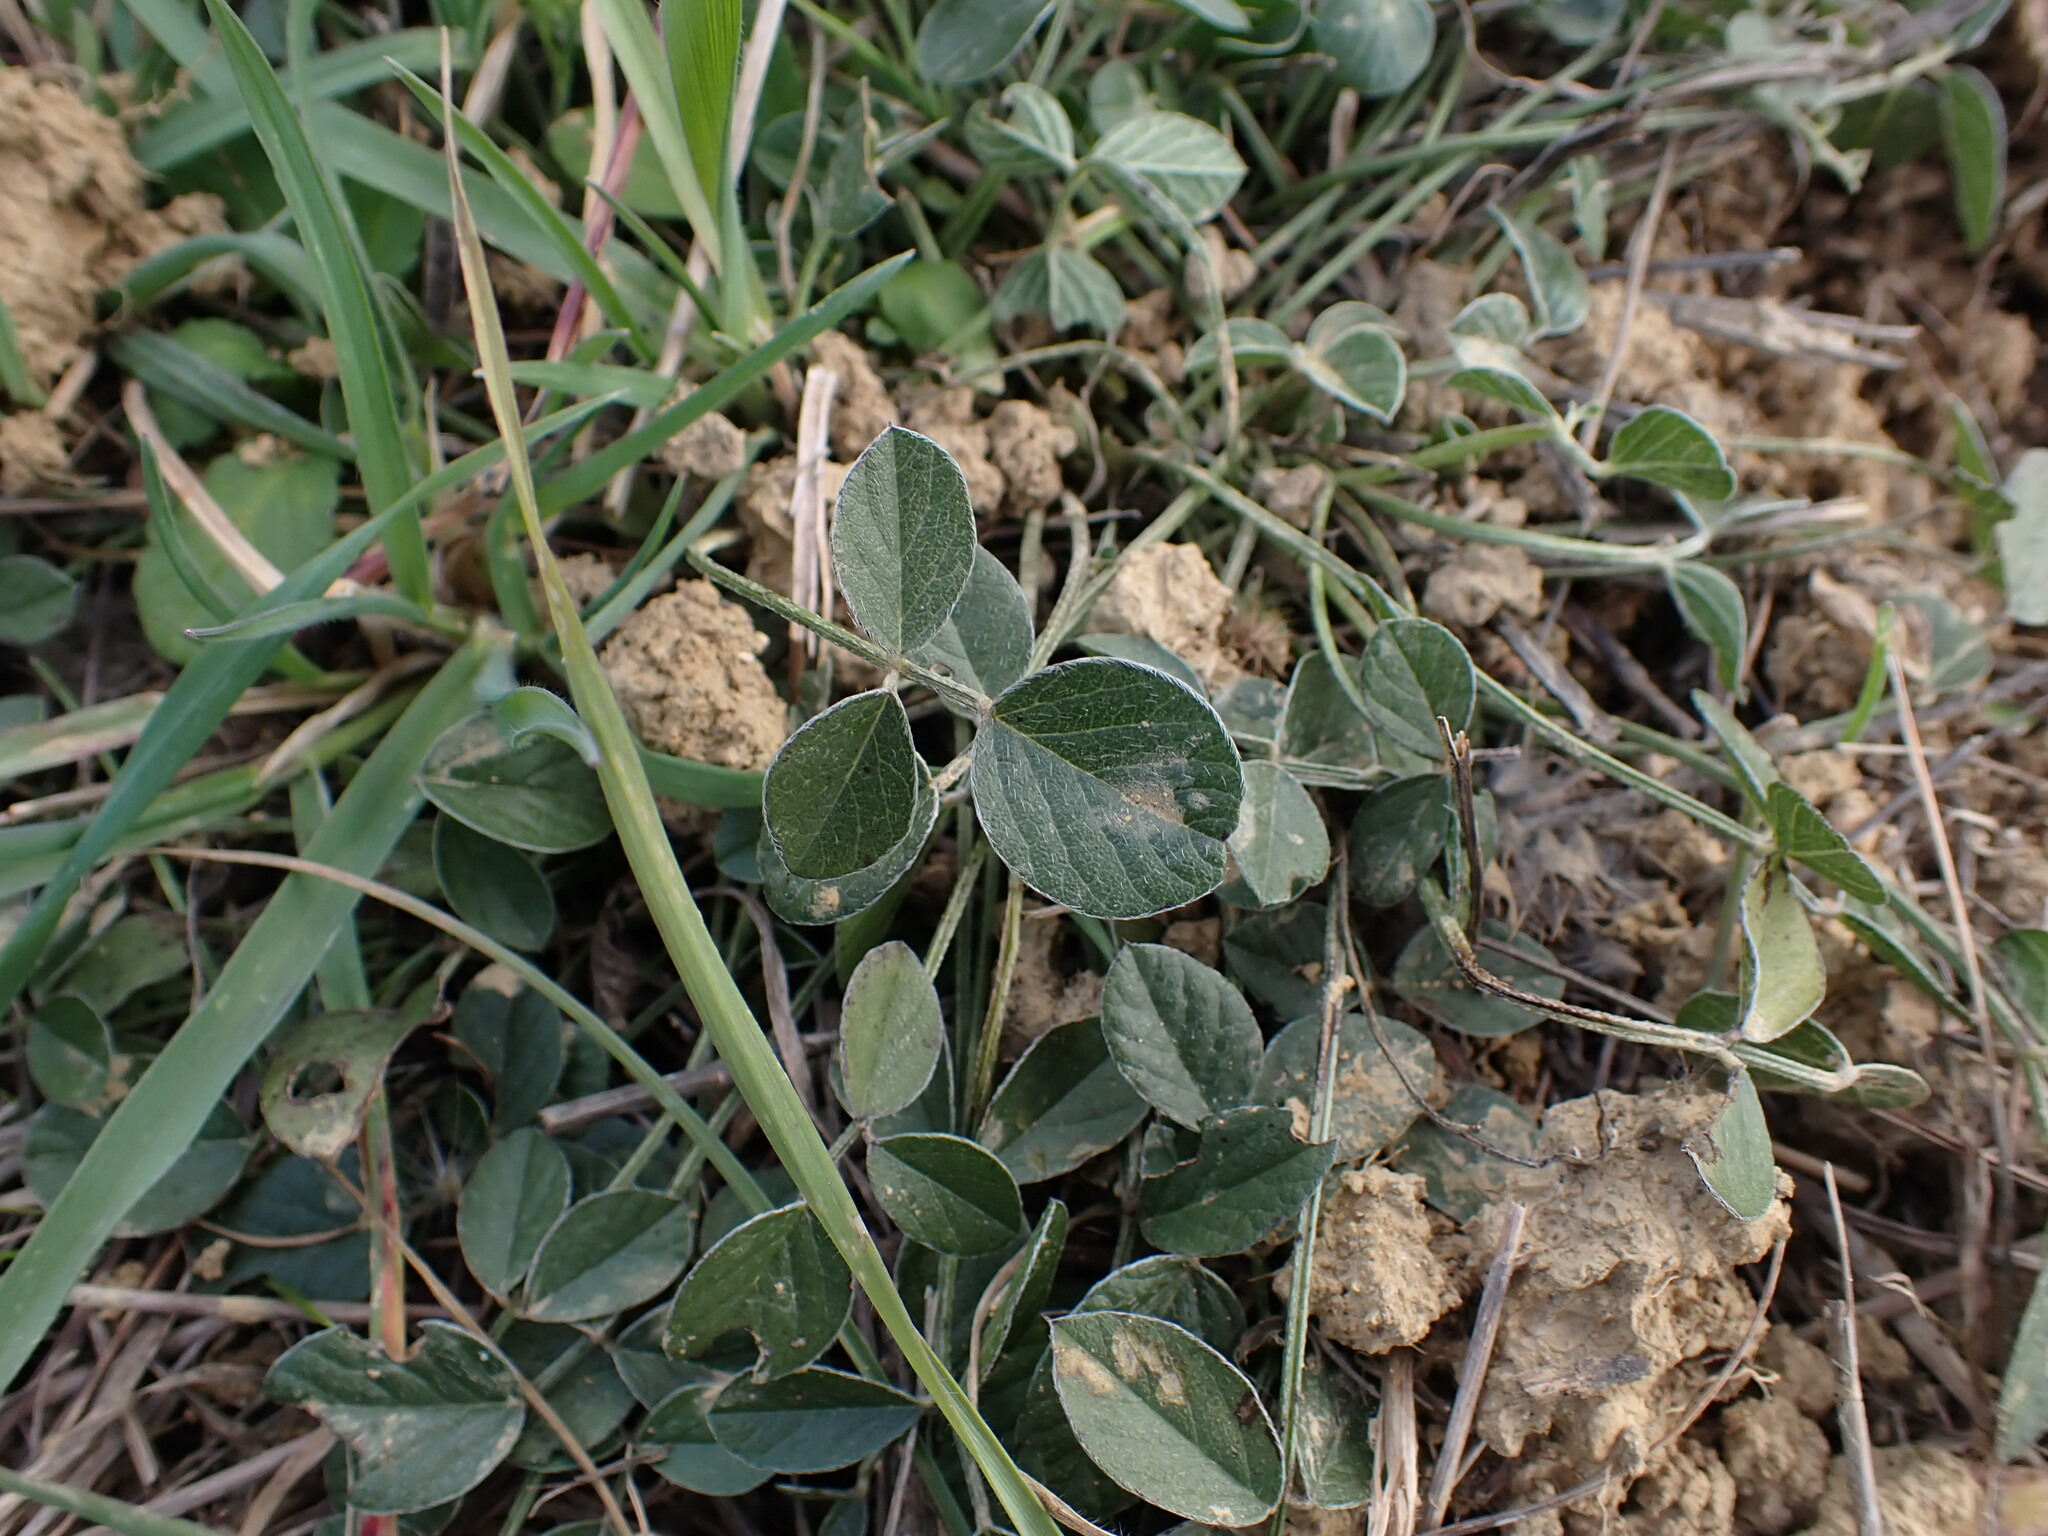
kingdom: Plantae
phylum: Tracheophyta
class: Magnoliopsida
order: Fabales
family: Fabaceae
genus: Bituminaria
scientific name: Bituminaria bituminosa
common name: Arabian pea
